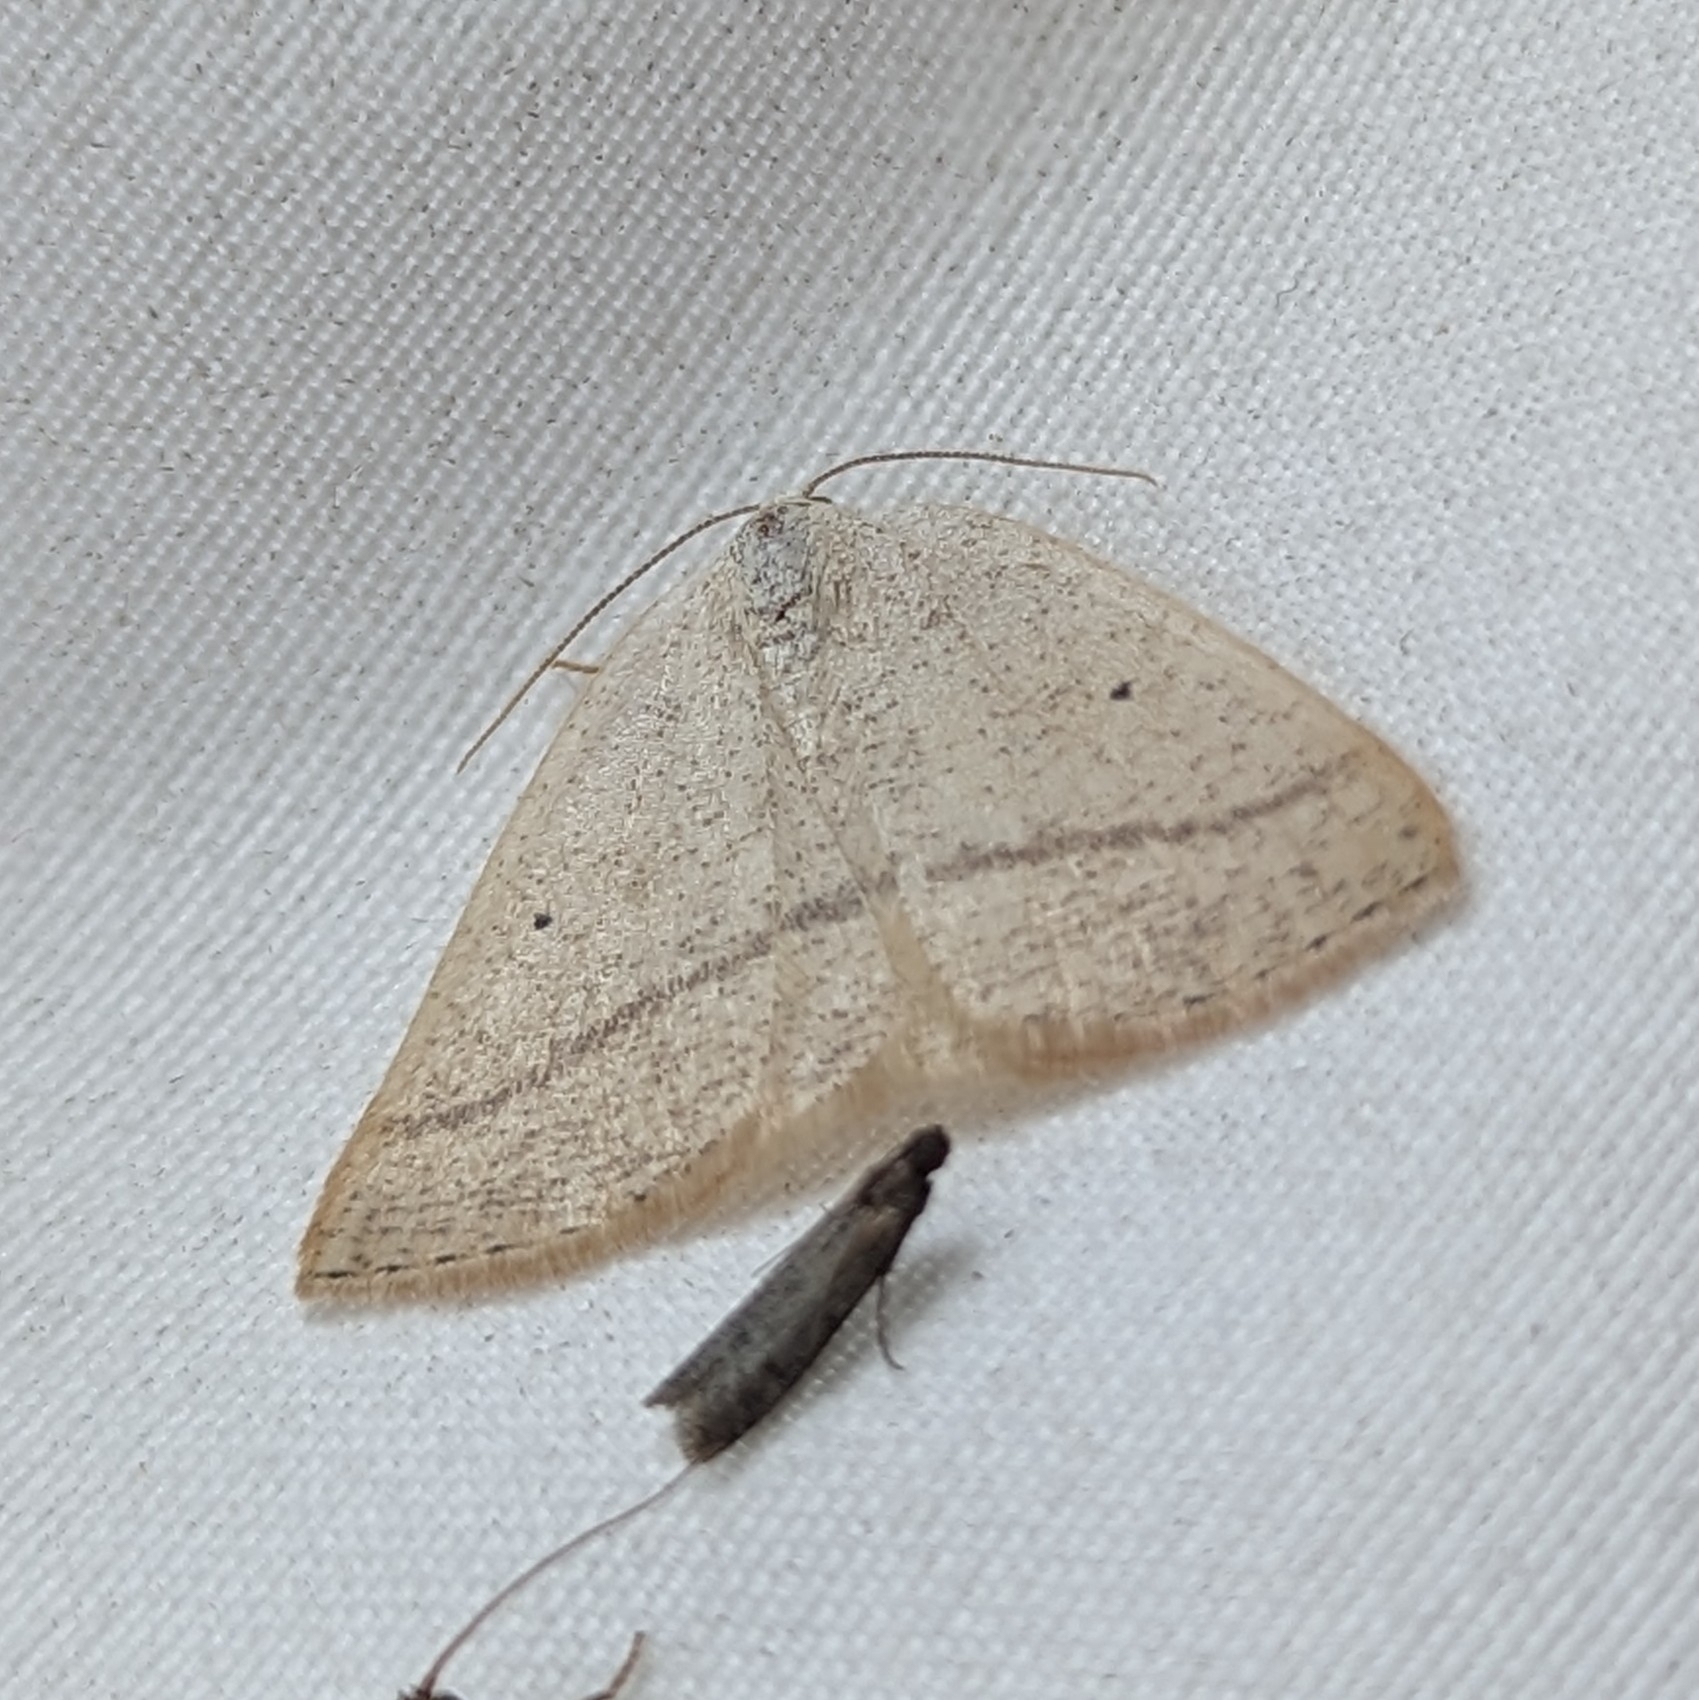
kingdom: Animalia
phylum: Arthropoda
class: Insecta
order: Lepidoptera
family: Geometridae
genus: Eudrepanulatrix
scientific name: Eudrepanulatrix rectifascia
